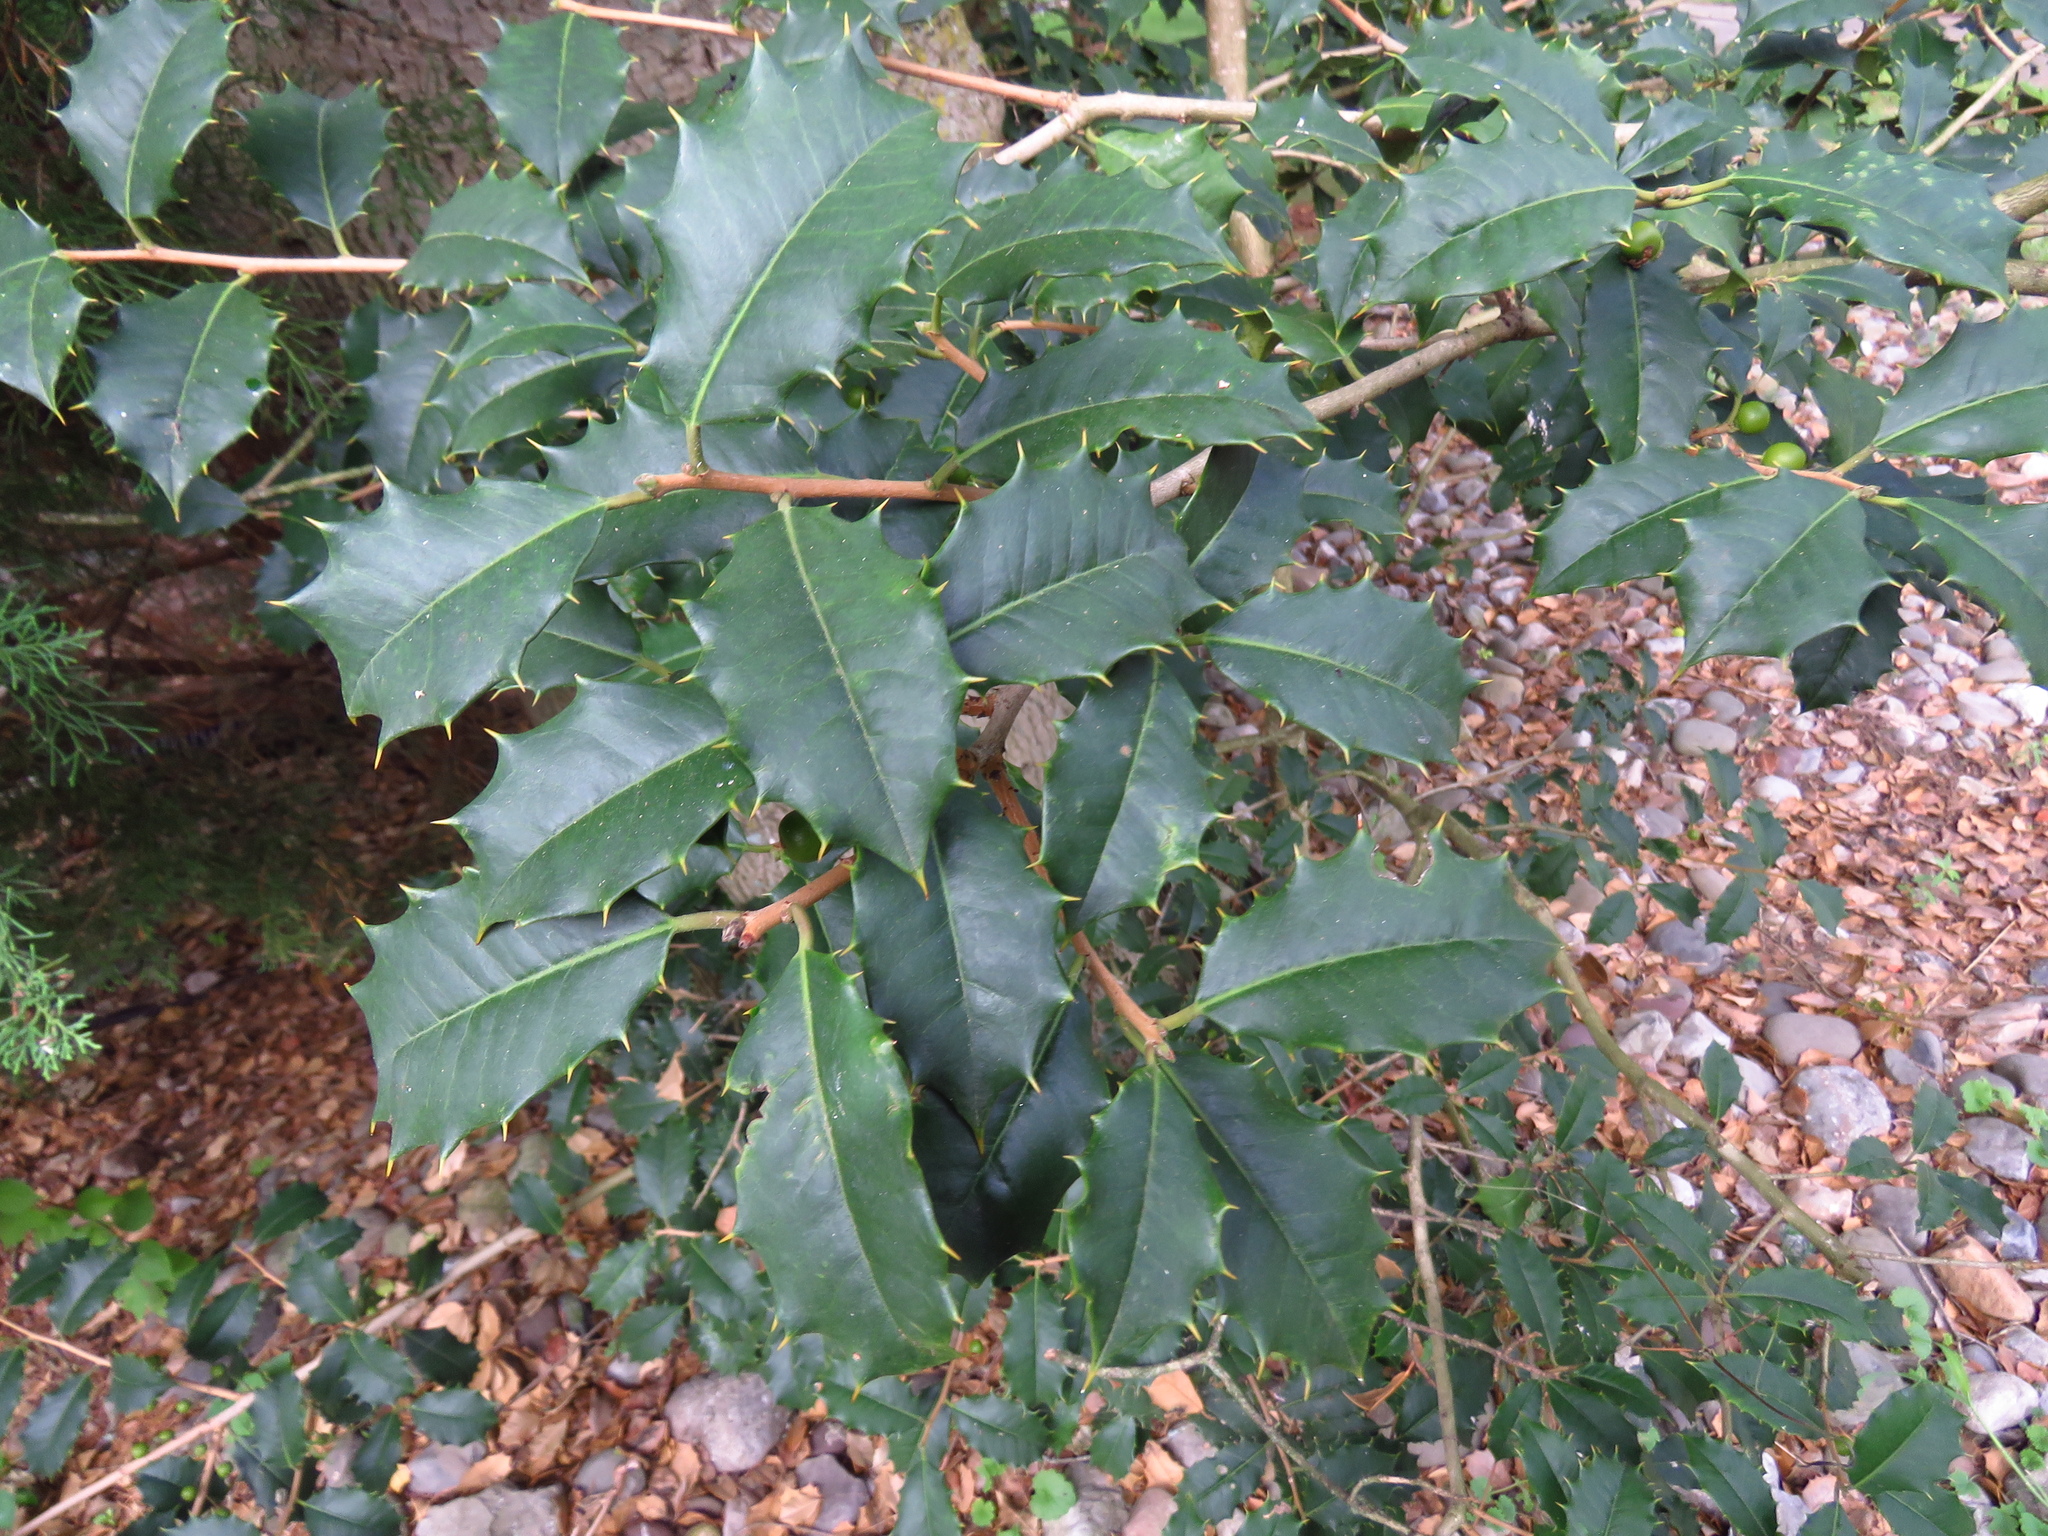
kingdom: Plantae
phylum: Tracheophyta
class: Magnoliopsida
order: Aquifoliales
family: Aquifoliaceae
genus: Ilex
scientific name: Ilex opaca
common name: American holly
